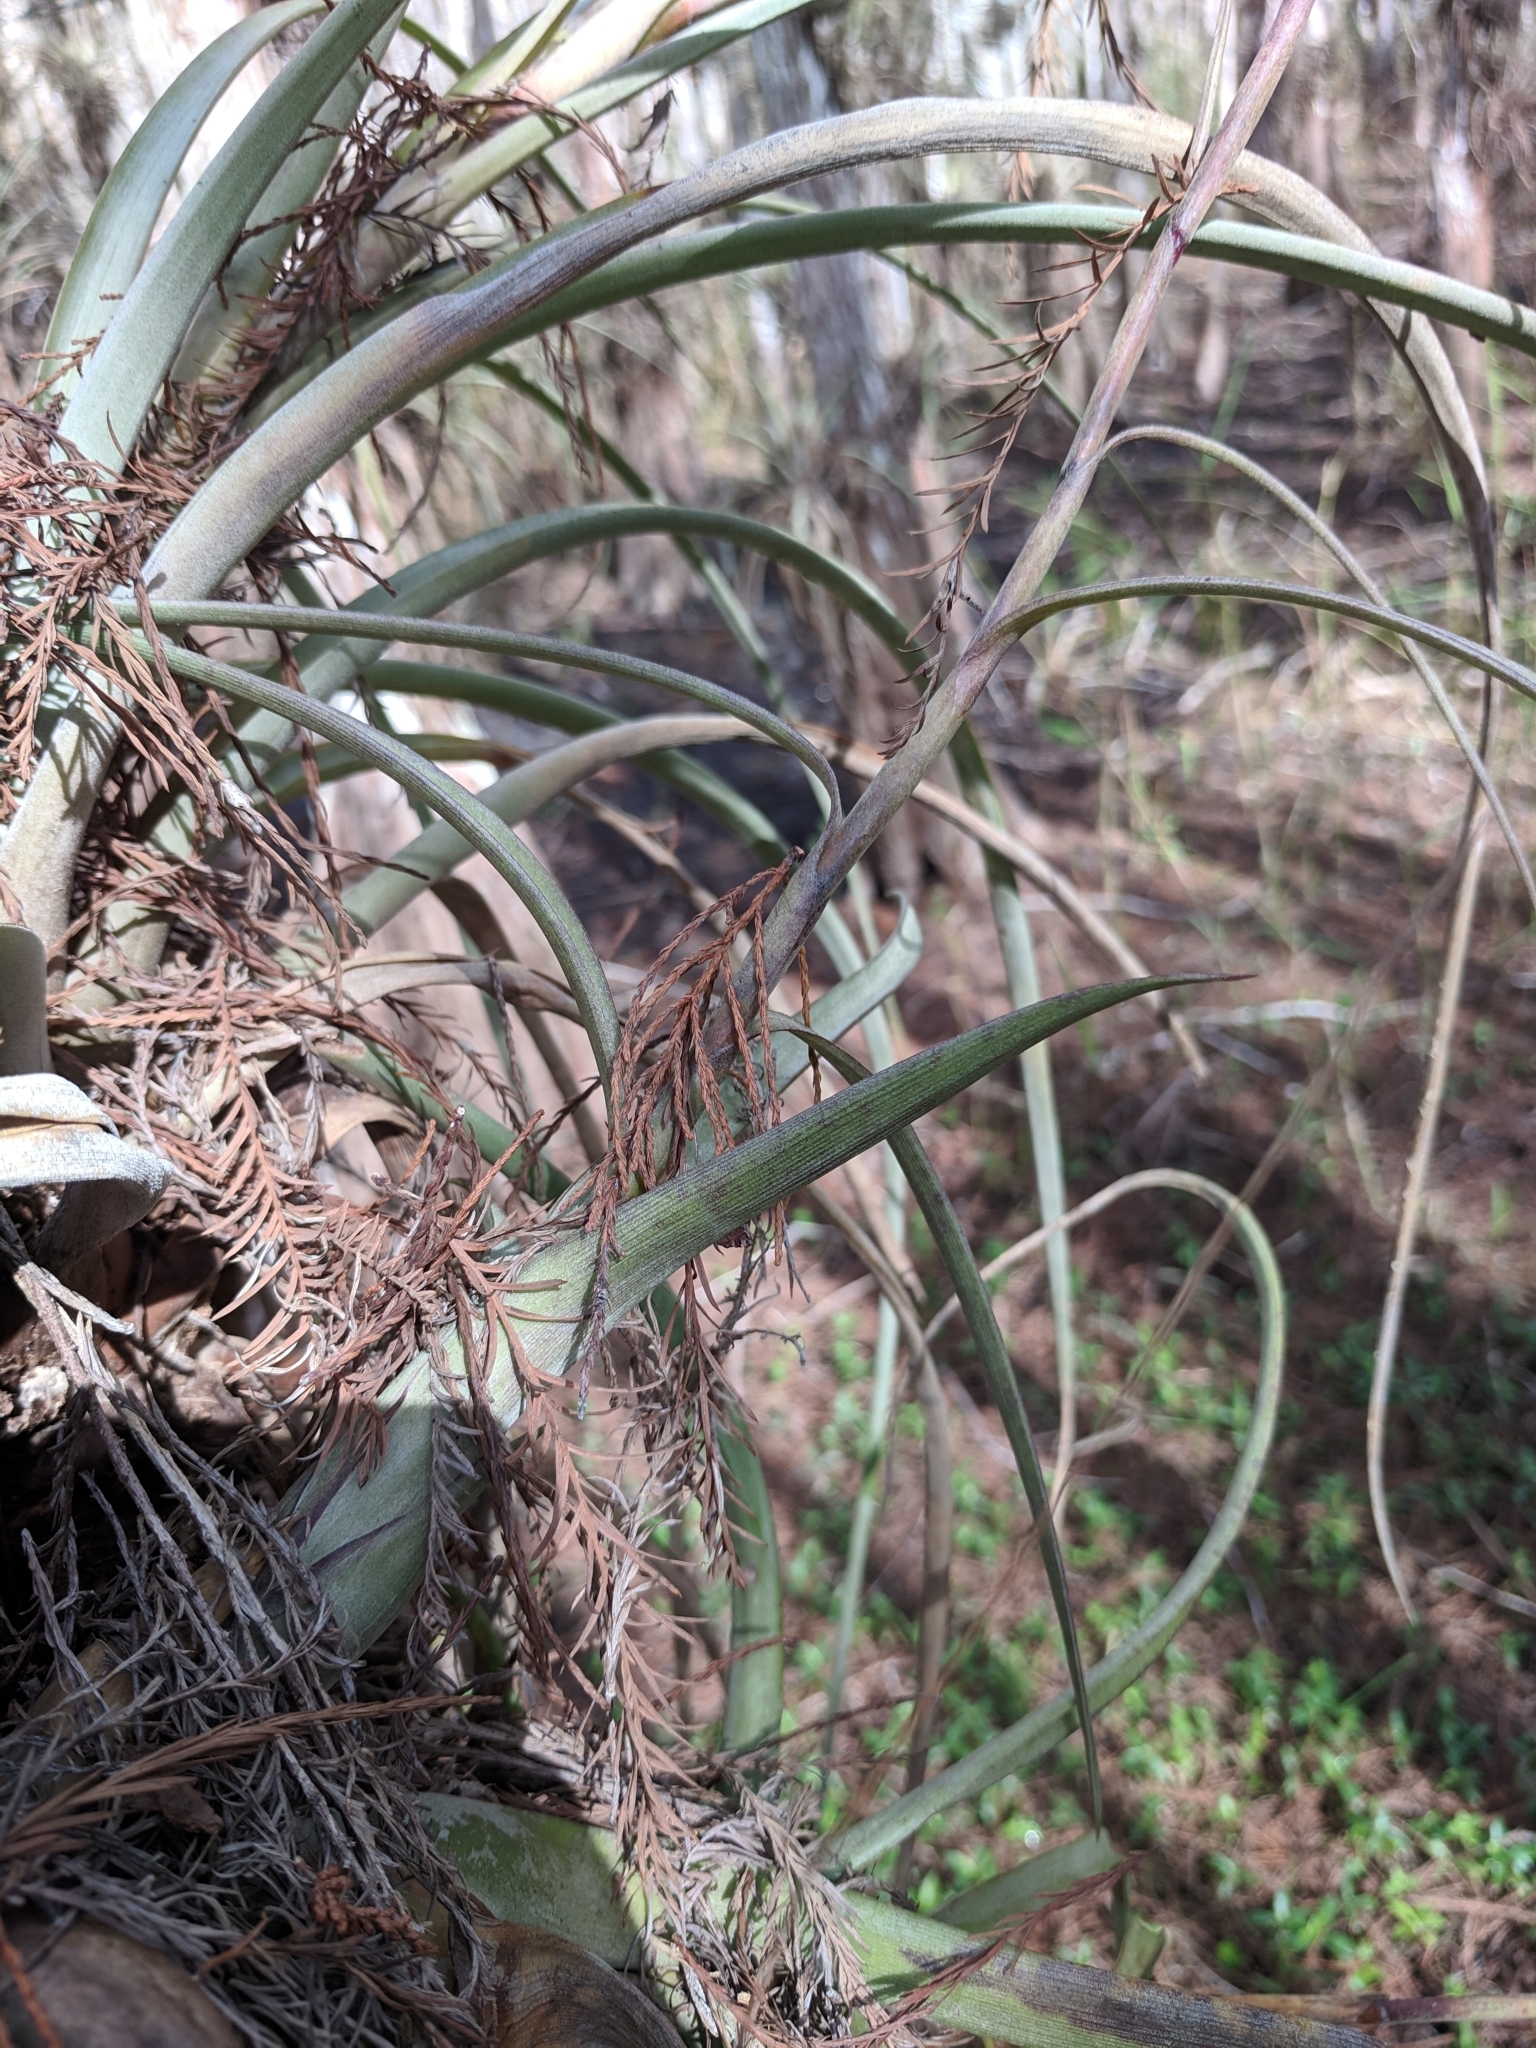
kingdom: Plantae
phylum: Tracheophyta
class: Liliopsida
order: Poales
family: Bromeliaceae
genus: Tillandsia
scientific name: Tillandsia balbisiana
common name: Northern needleleaf
